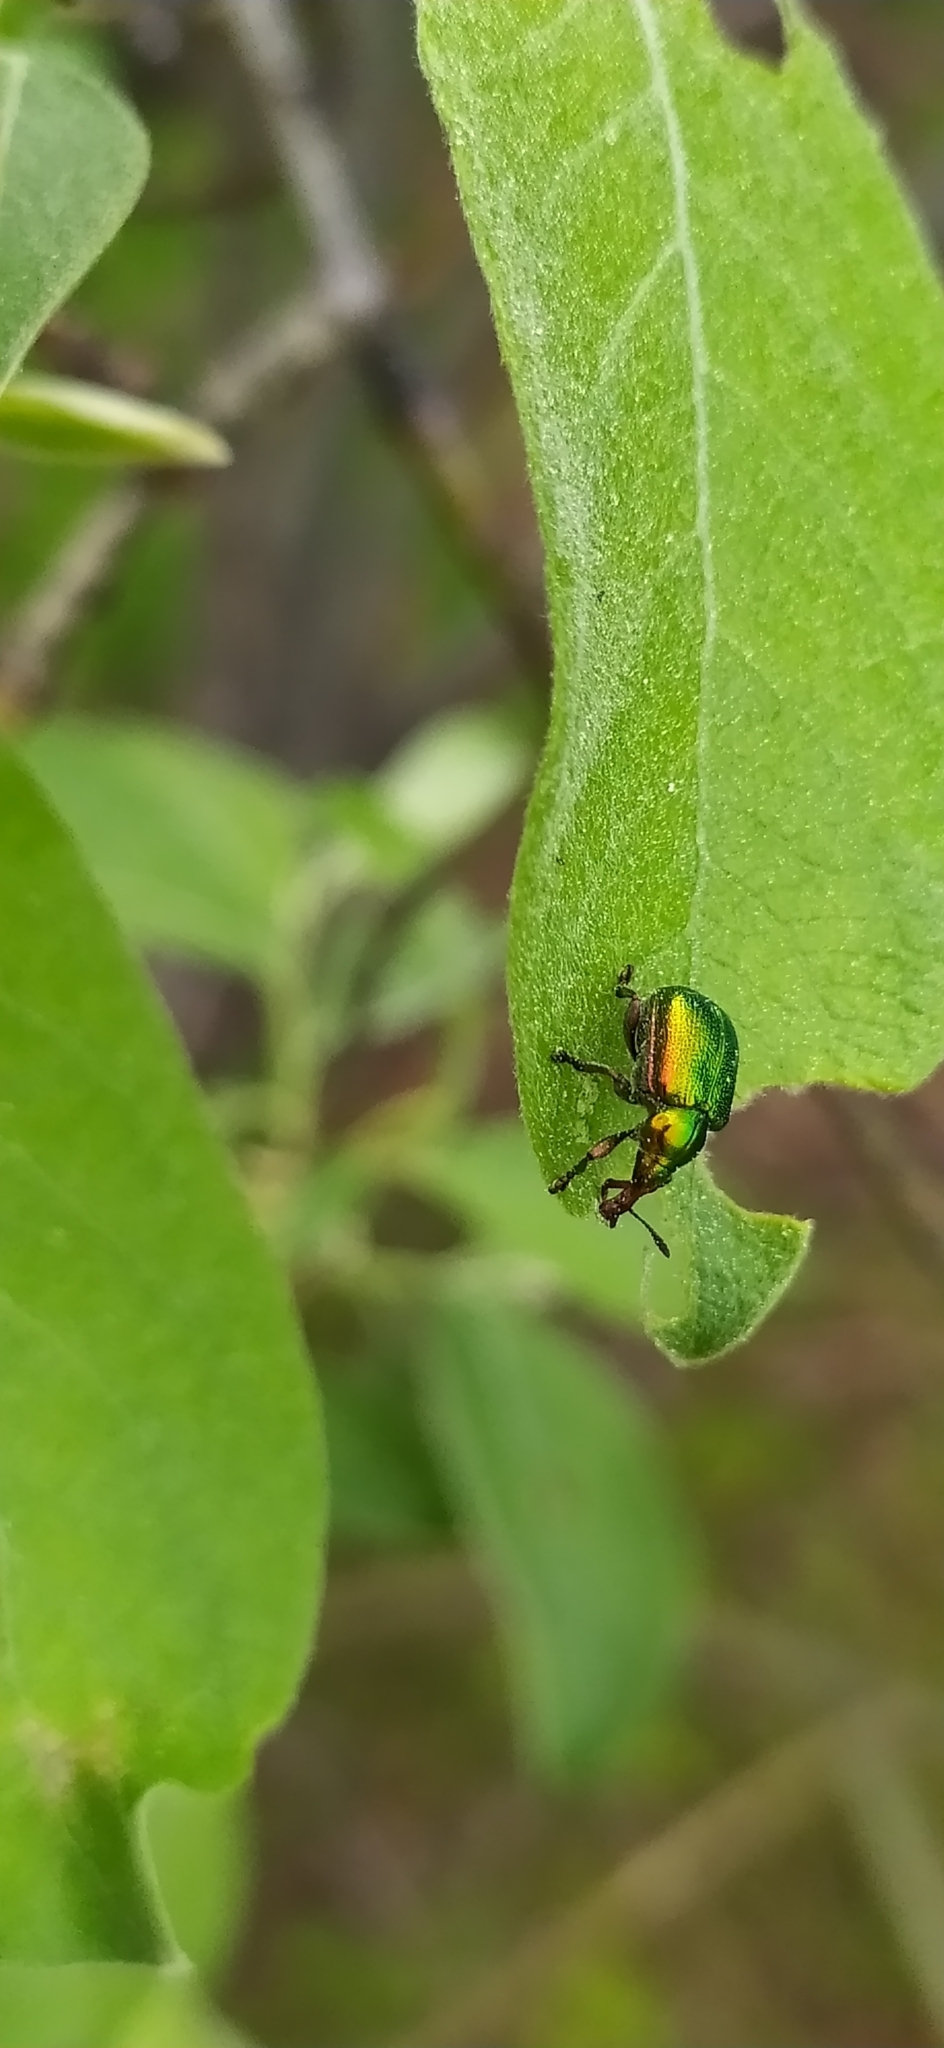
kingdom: Animalia
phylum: Arthropoda
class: Insecta
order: Coleoptera
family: Attelabidae
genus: Byctiscus
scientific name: Byctiscus betulae
